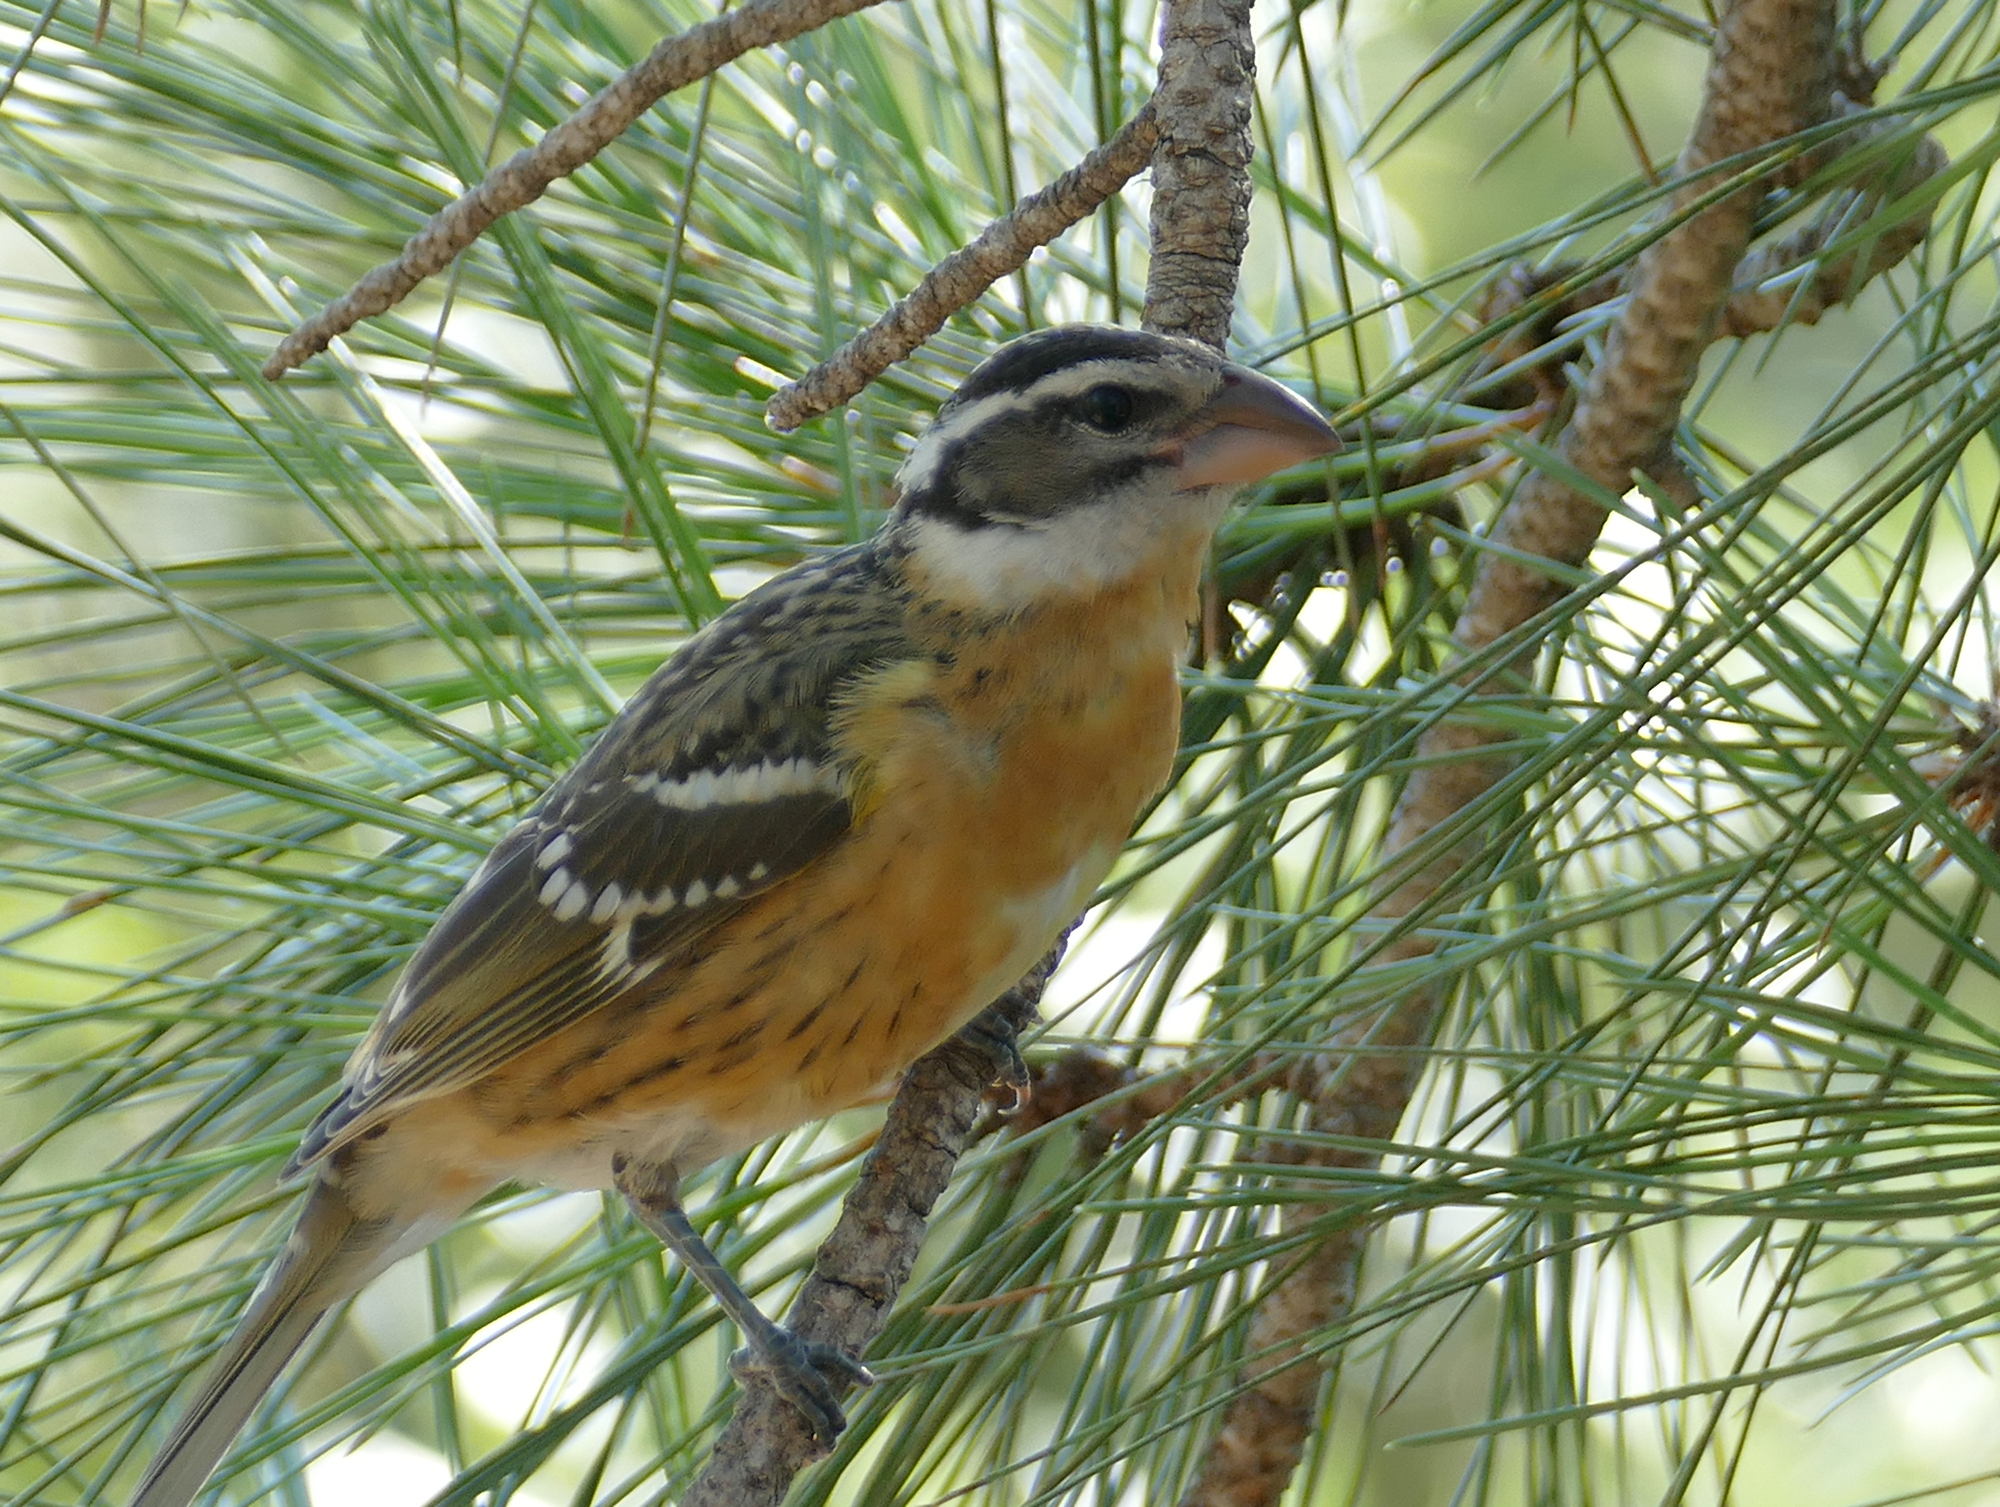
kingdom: Animalia
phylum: Chordata
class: Aves
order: Passeriformes
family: Cardinalidae
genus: Pheucticus
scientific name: Pheucticus melanocephalus
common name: Black-headed grosbeak
